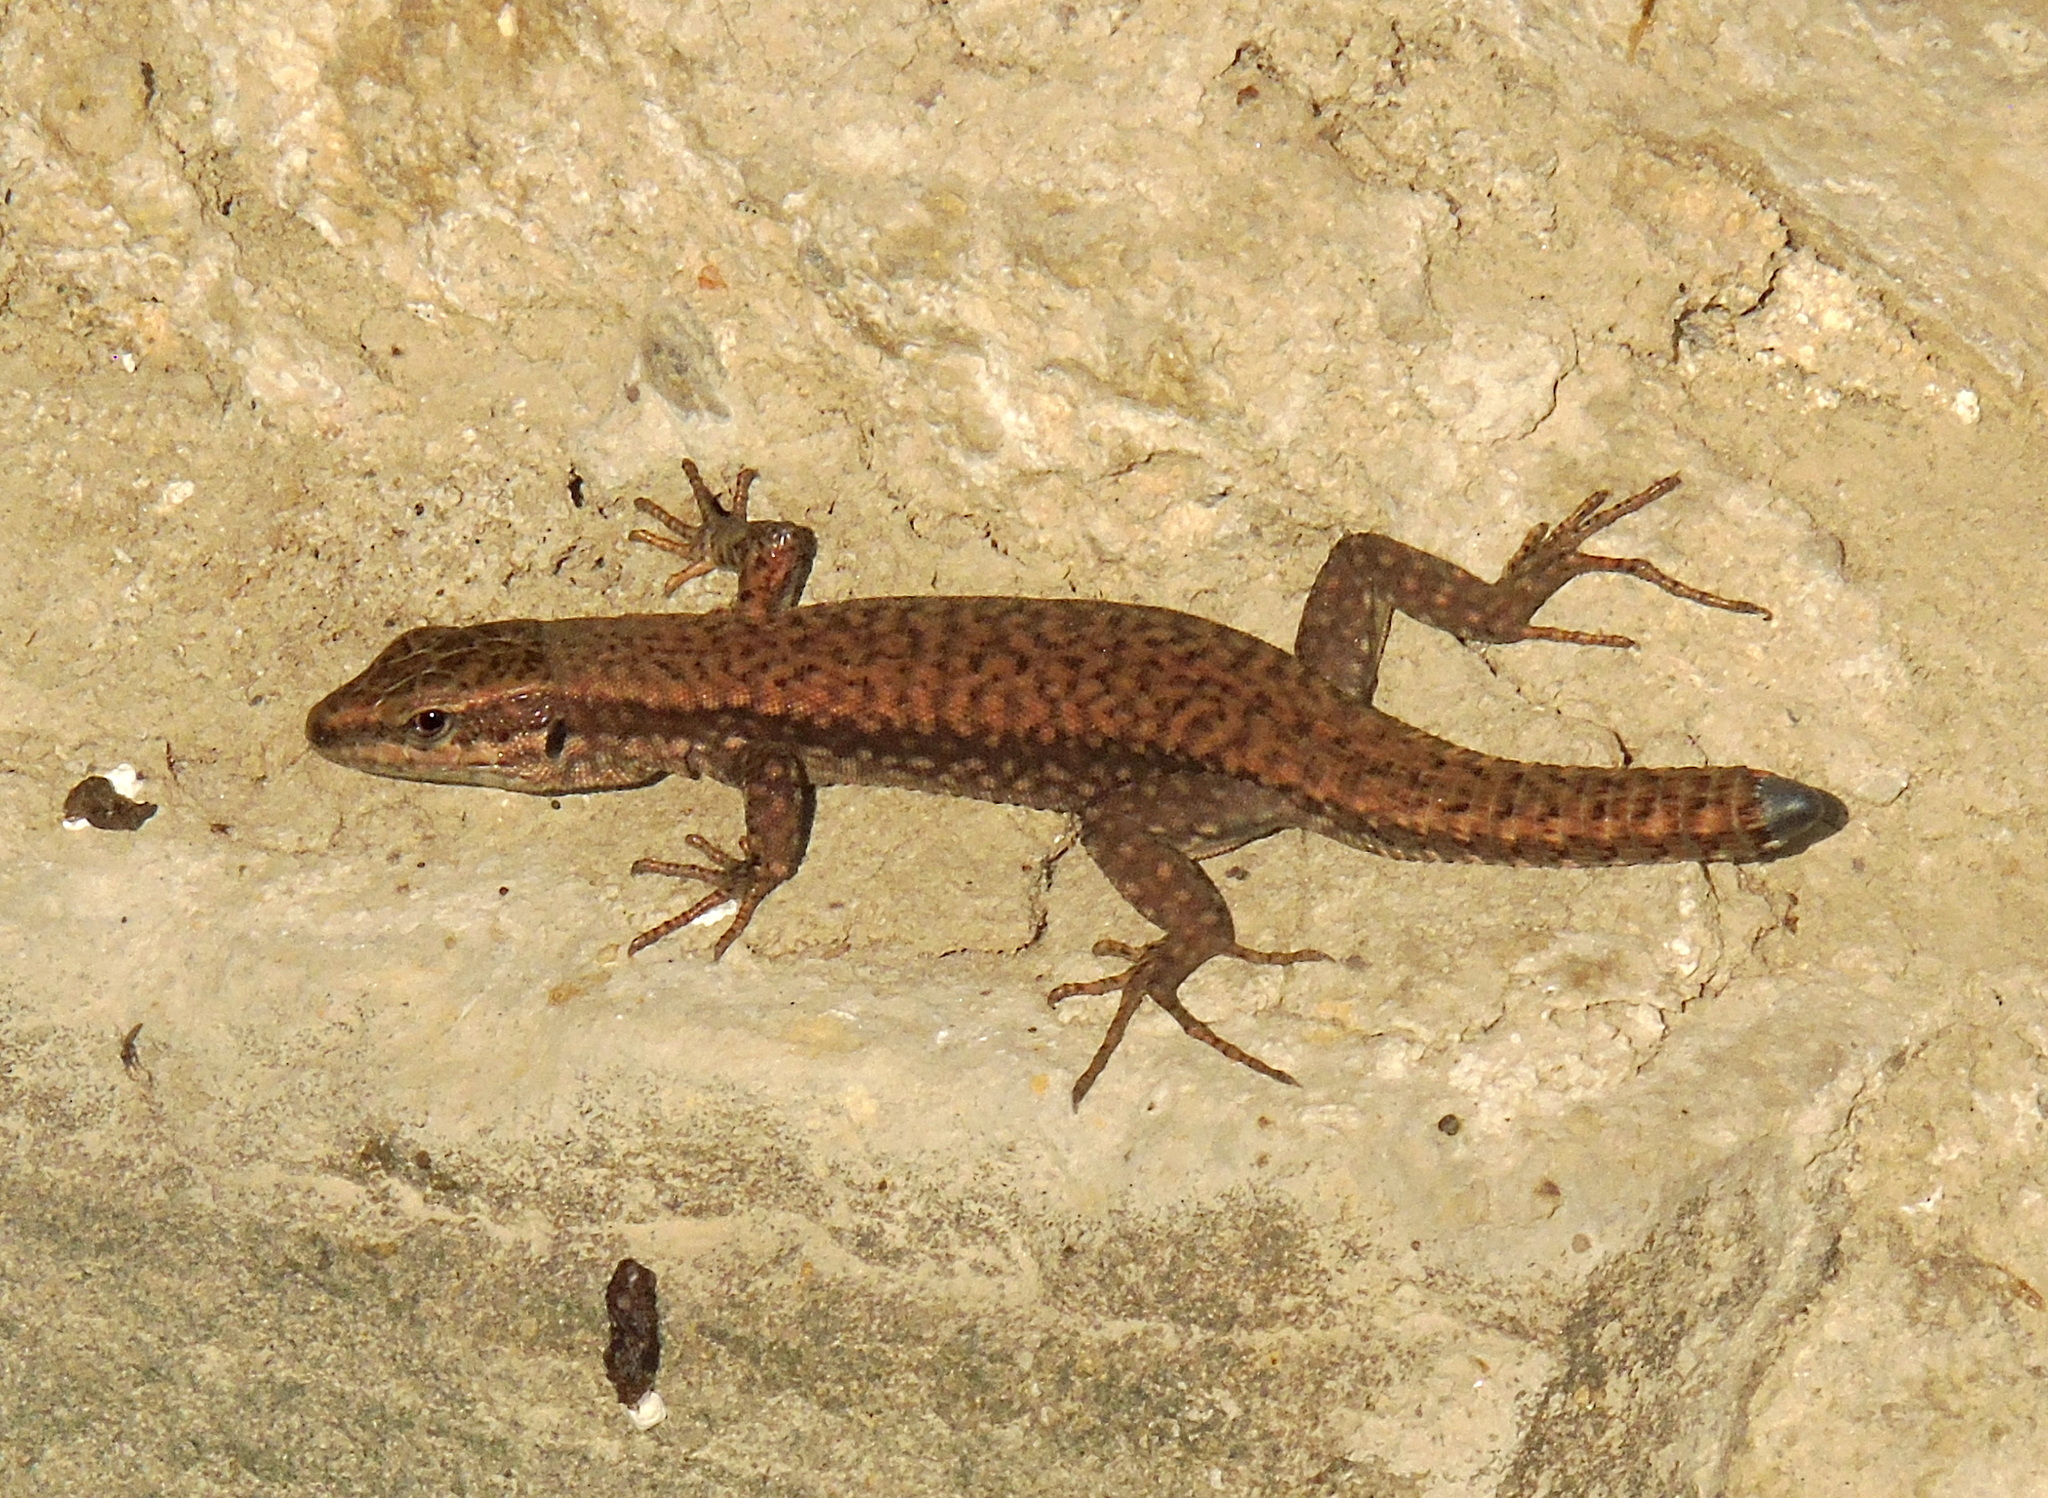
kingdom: Animalia
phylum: Chordata
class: Squamata
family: Lacertidae
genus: Podarcis
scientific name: Podarcis muralis
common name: Common wall lizard
